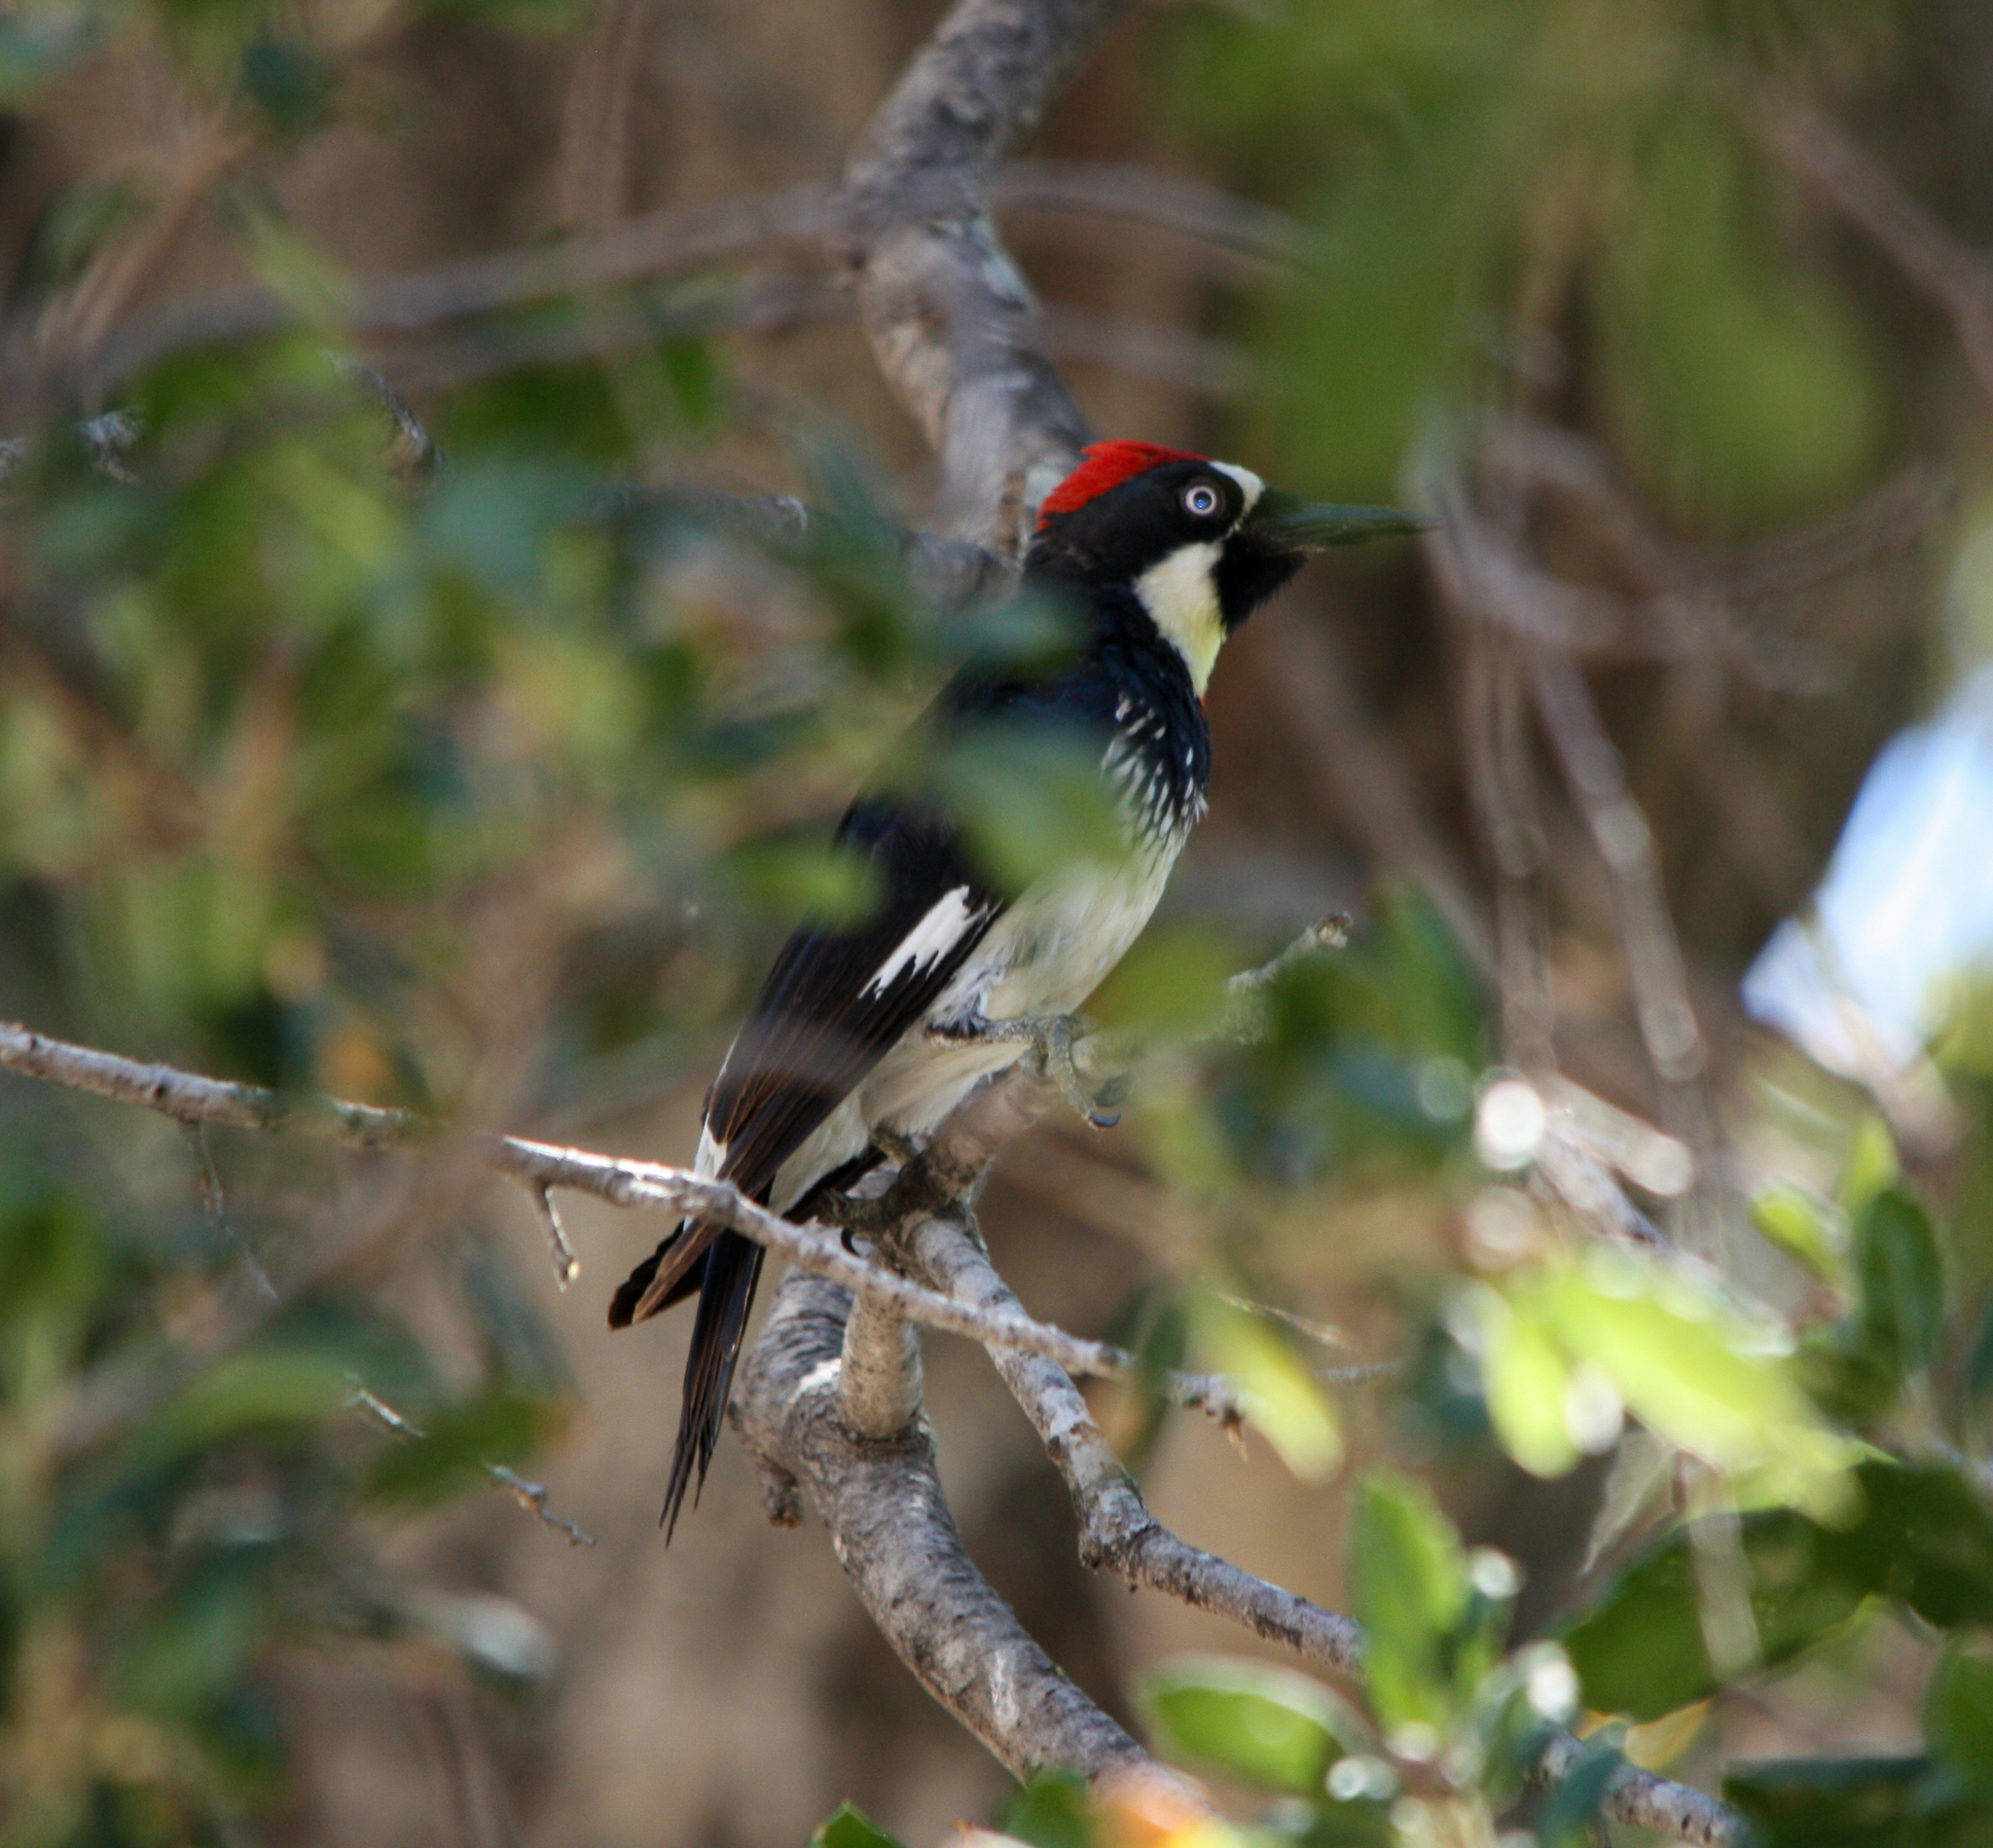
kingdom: Animalia
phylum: Chordata
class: Aves
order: Piciformes
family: Picidae
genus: Melanerpes
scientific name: Melanerpes formicivorus
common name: Acorn woodpecker
